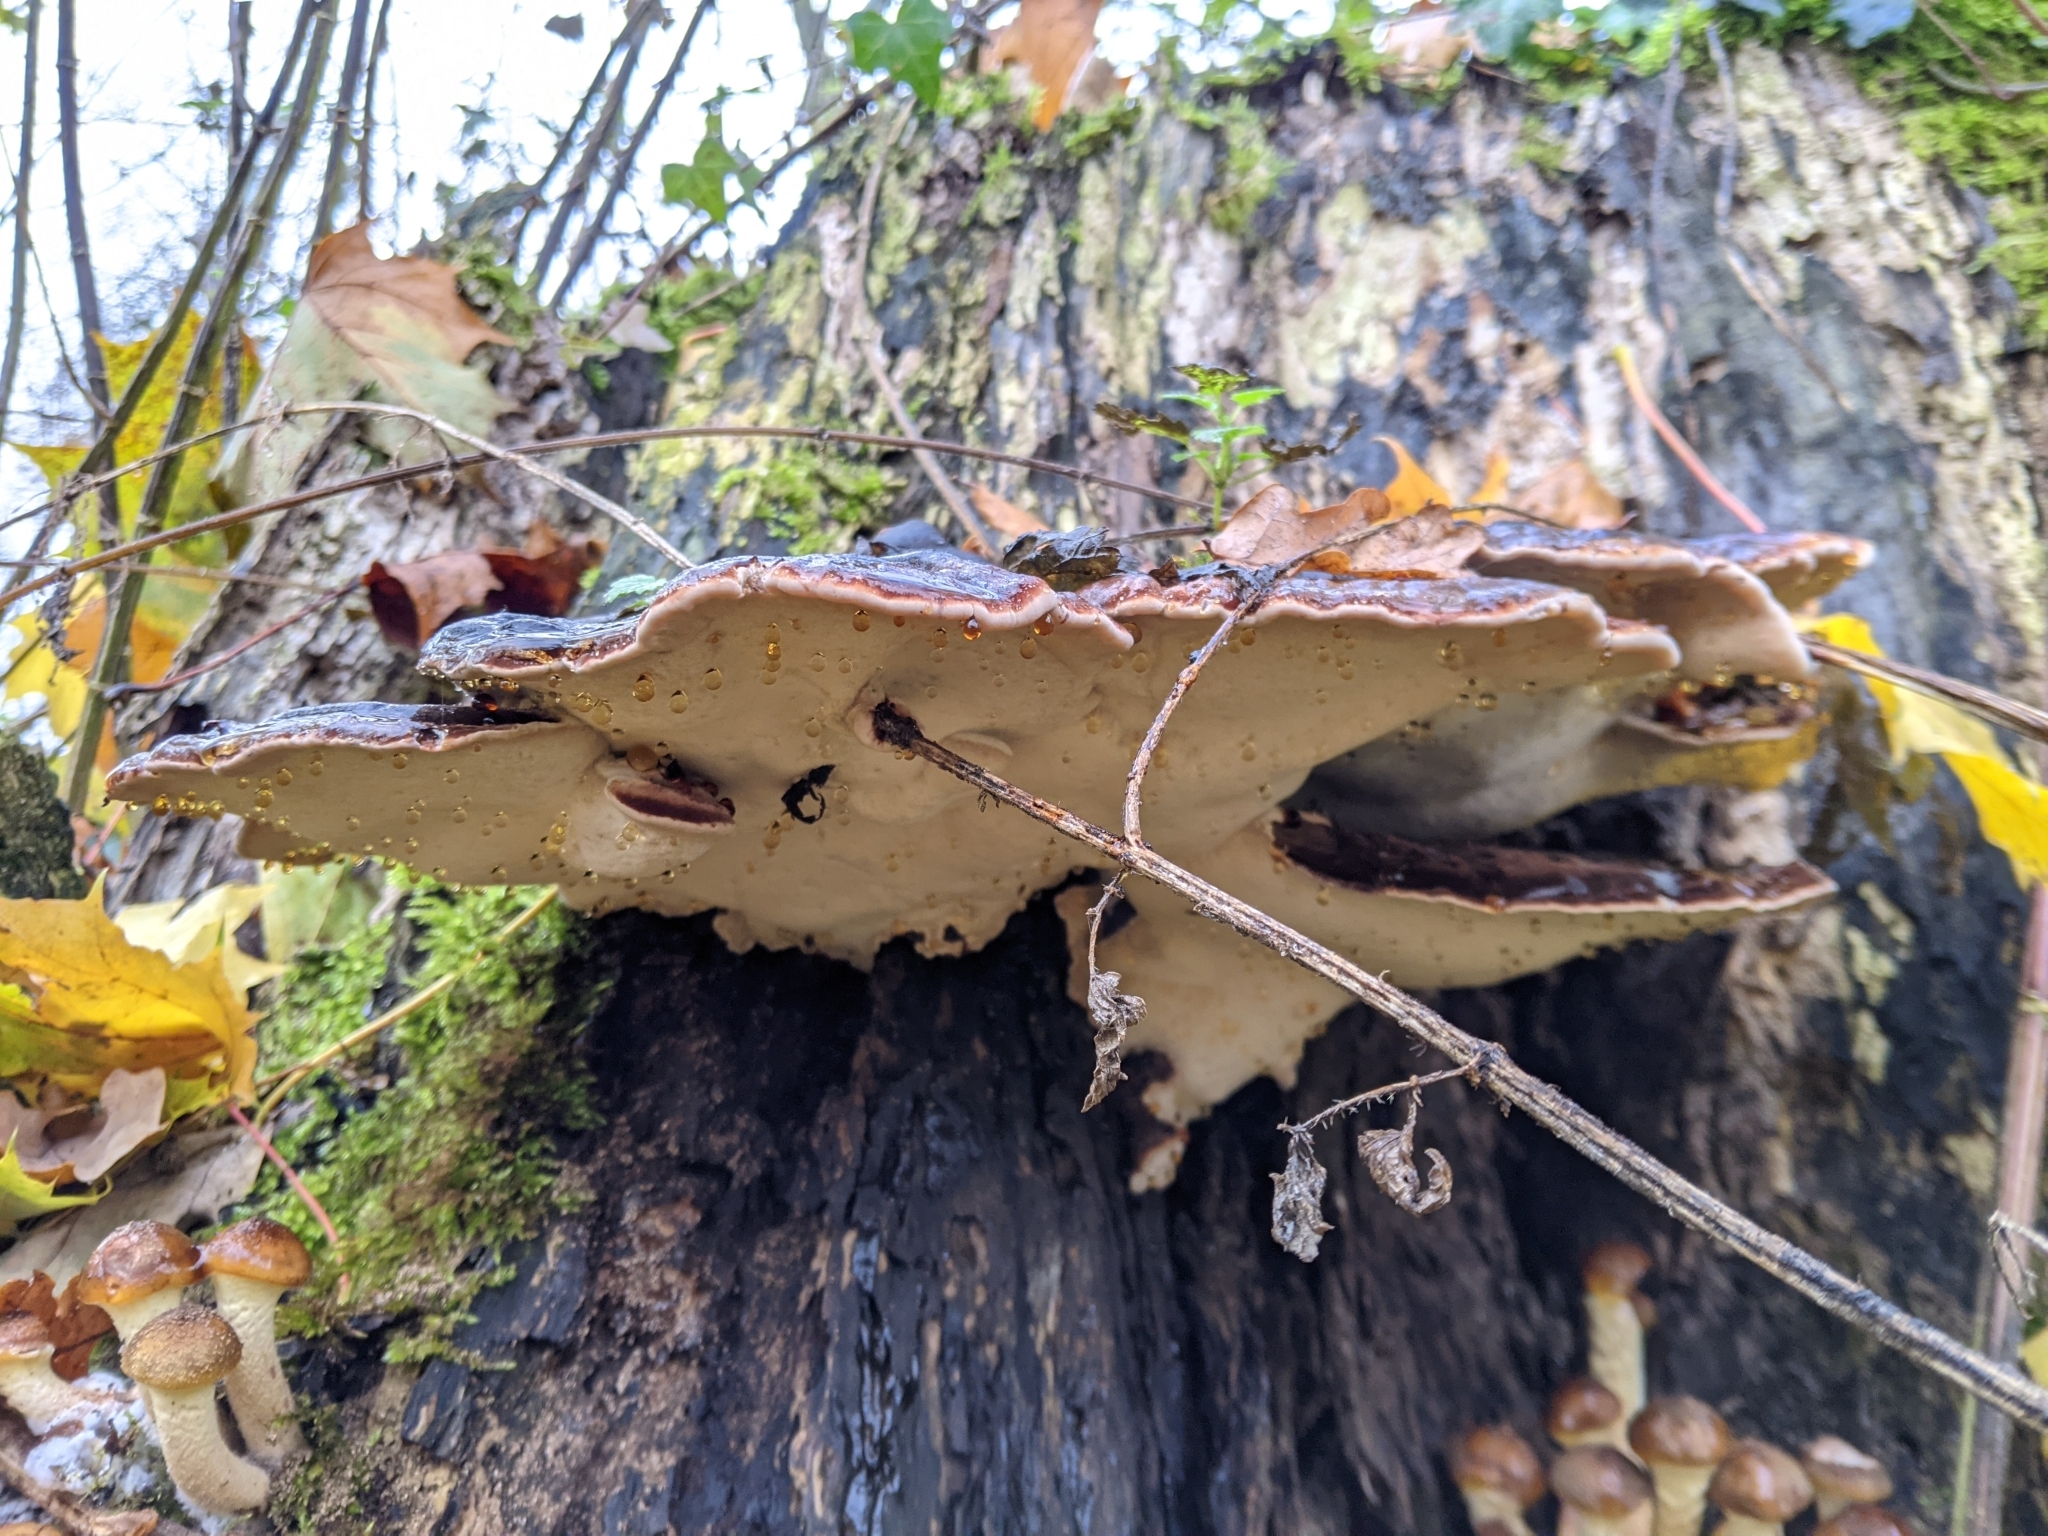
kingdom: Fungi
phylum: Basidiomycota
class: Agaricomycetes
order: Polyporales
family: Ischnodermataceae
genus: Ischnoderma
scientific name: Ischnoderma resinosum
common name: Resinous polypore
